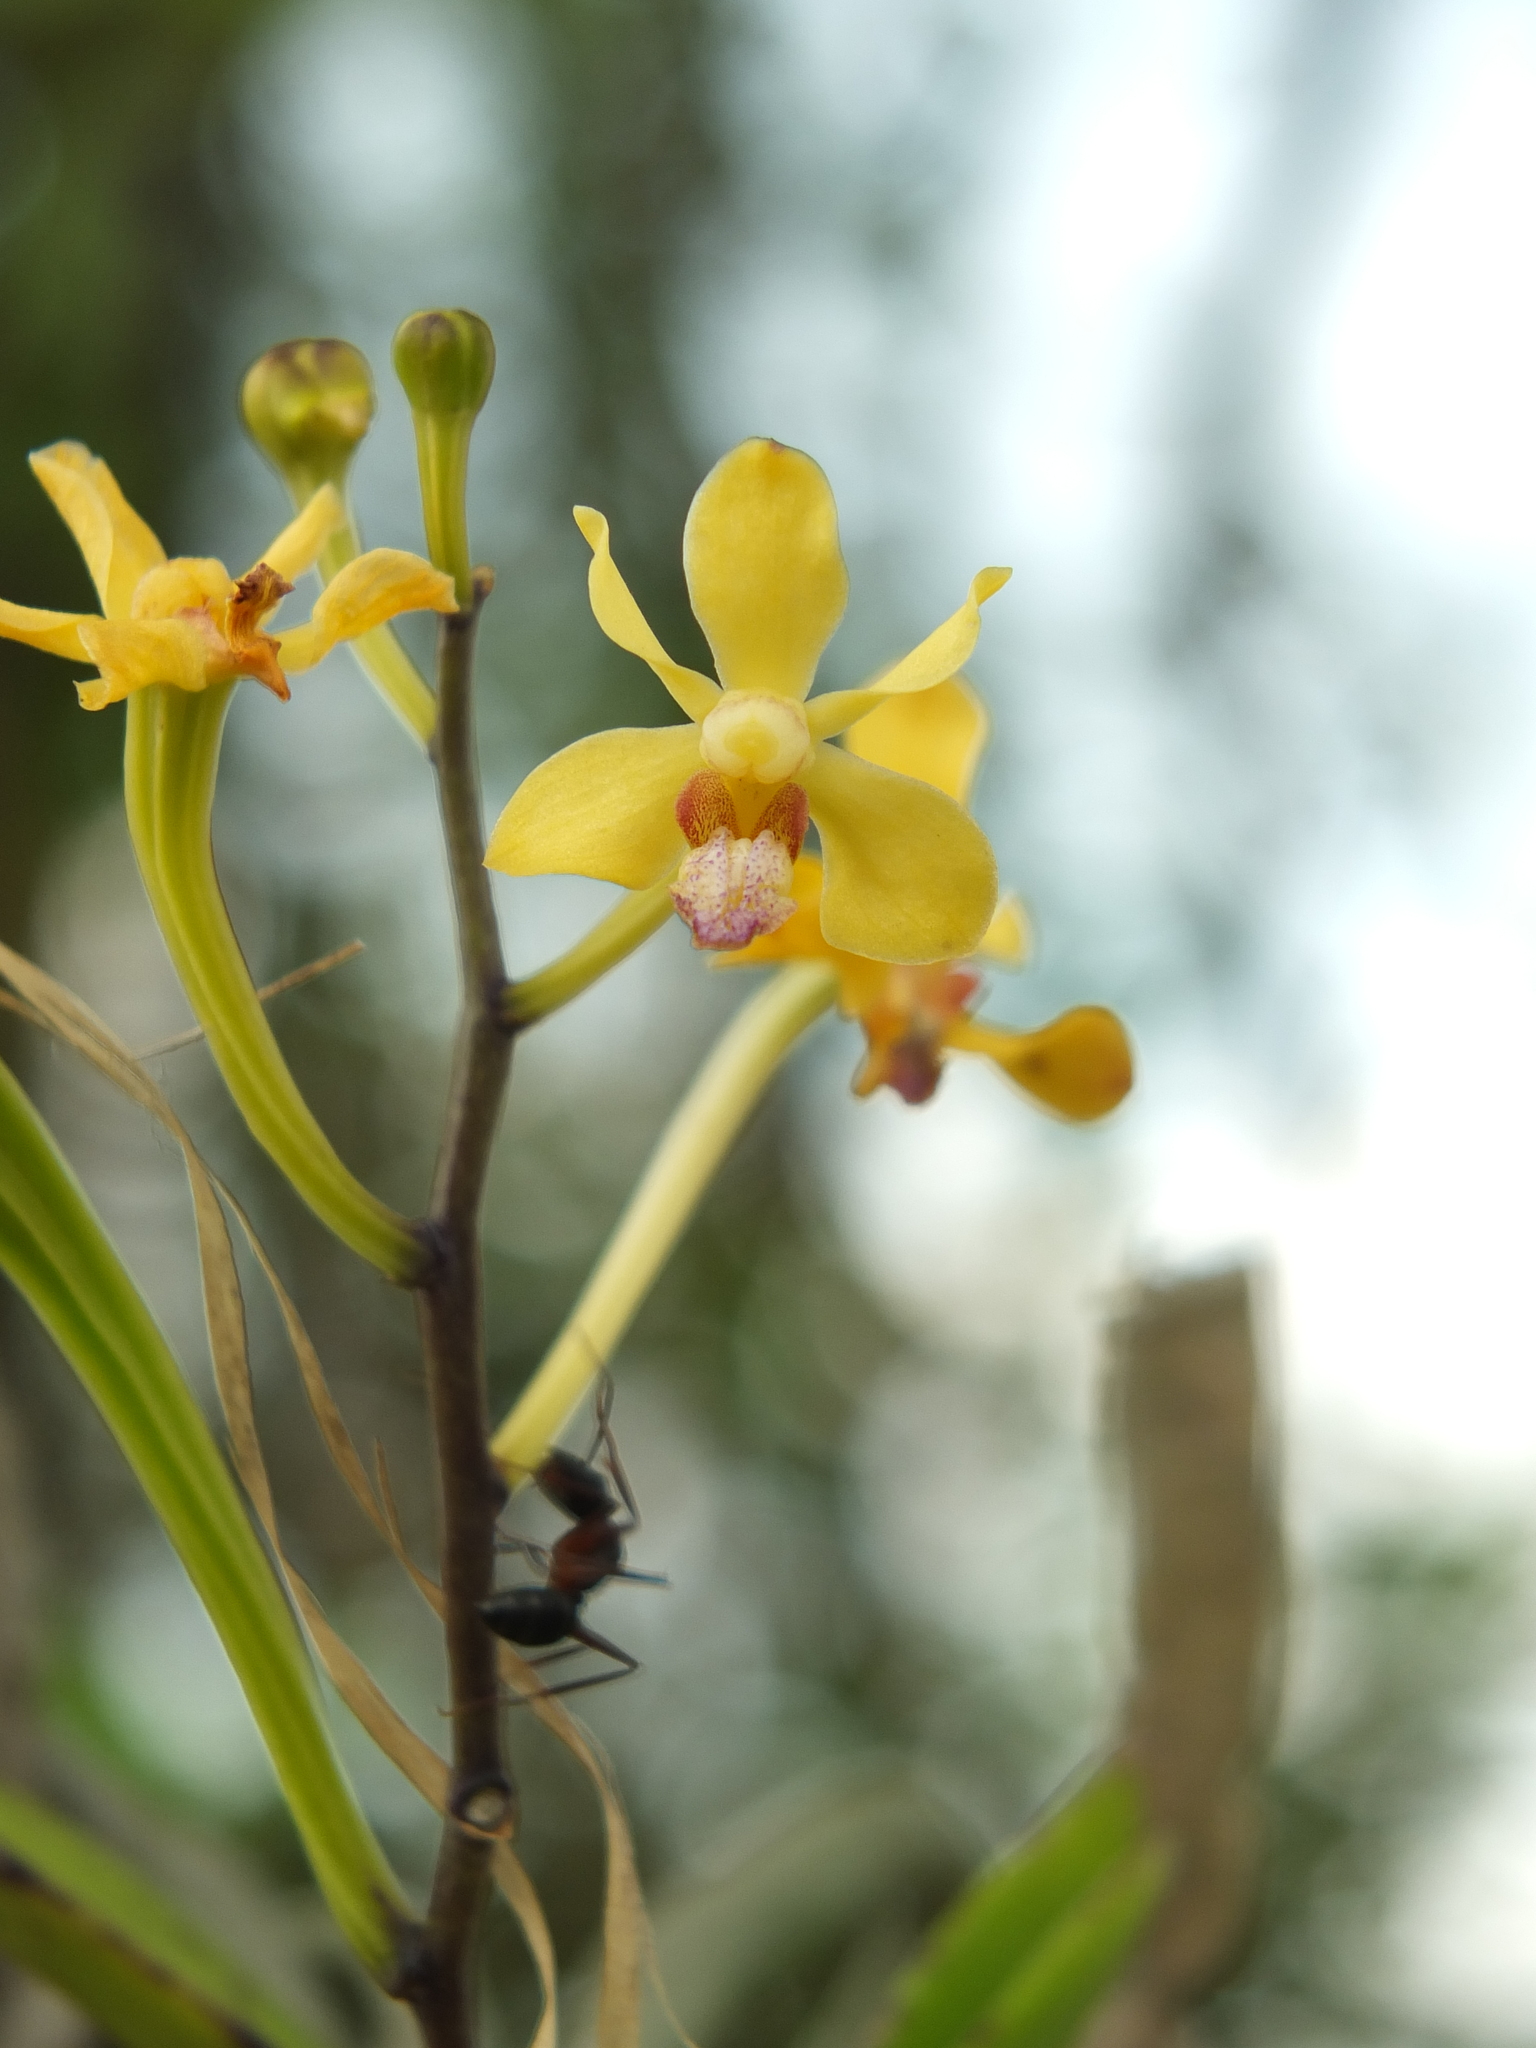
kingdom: Plantae
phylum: Tracheophyta
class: Liliopsida
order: Asparagales
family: Orchidaceae
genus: Vanda
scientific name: Vanda testacea
